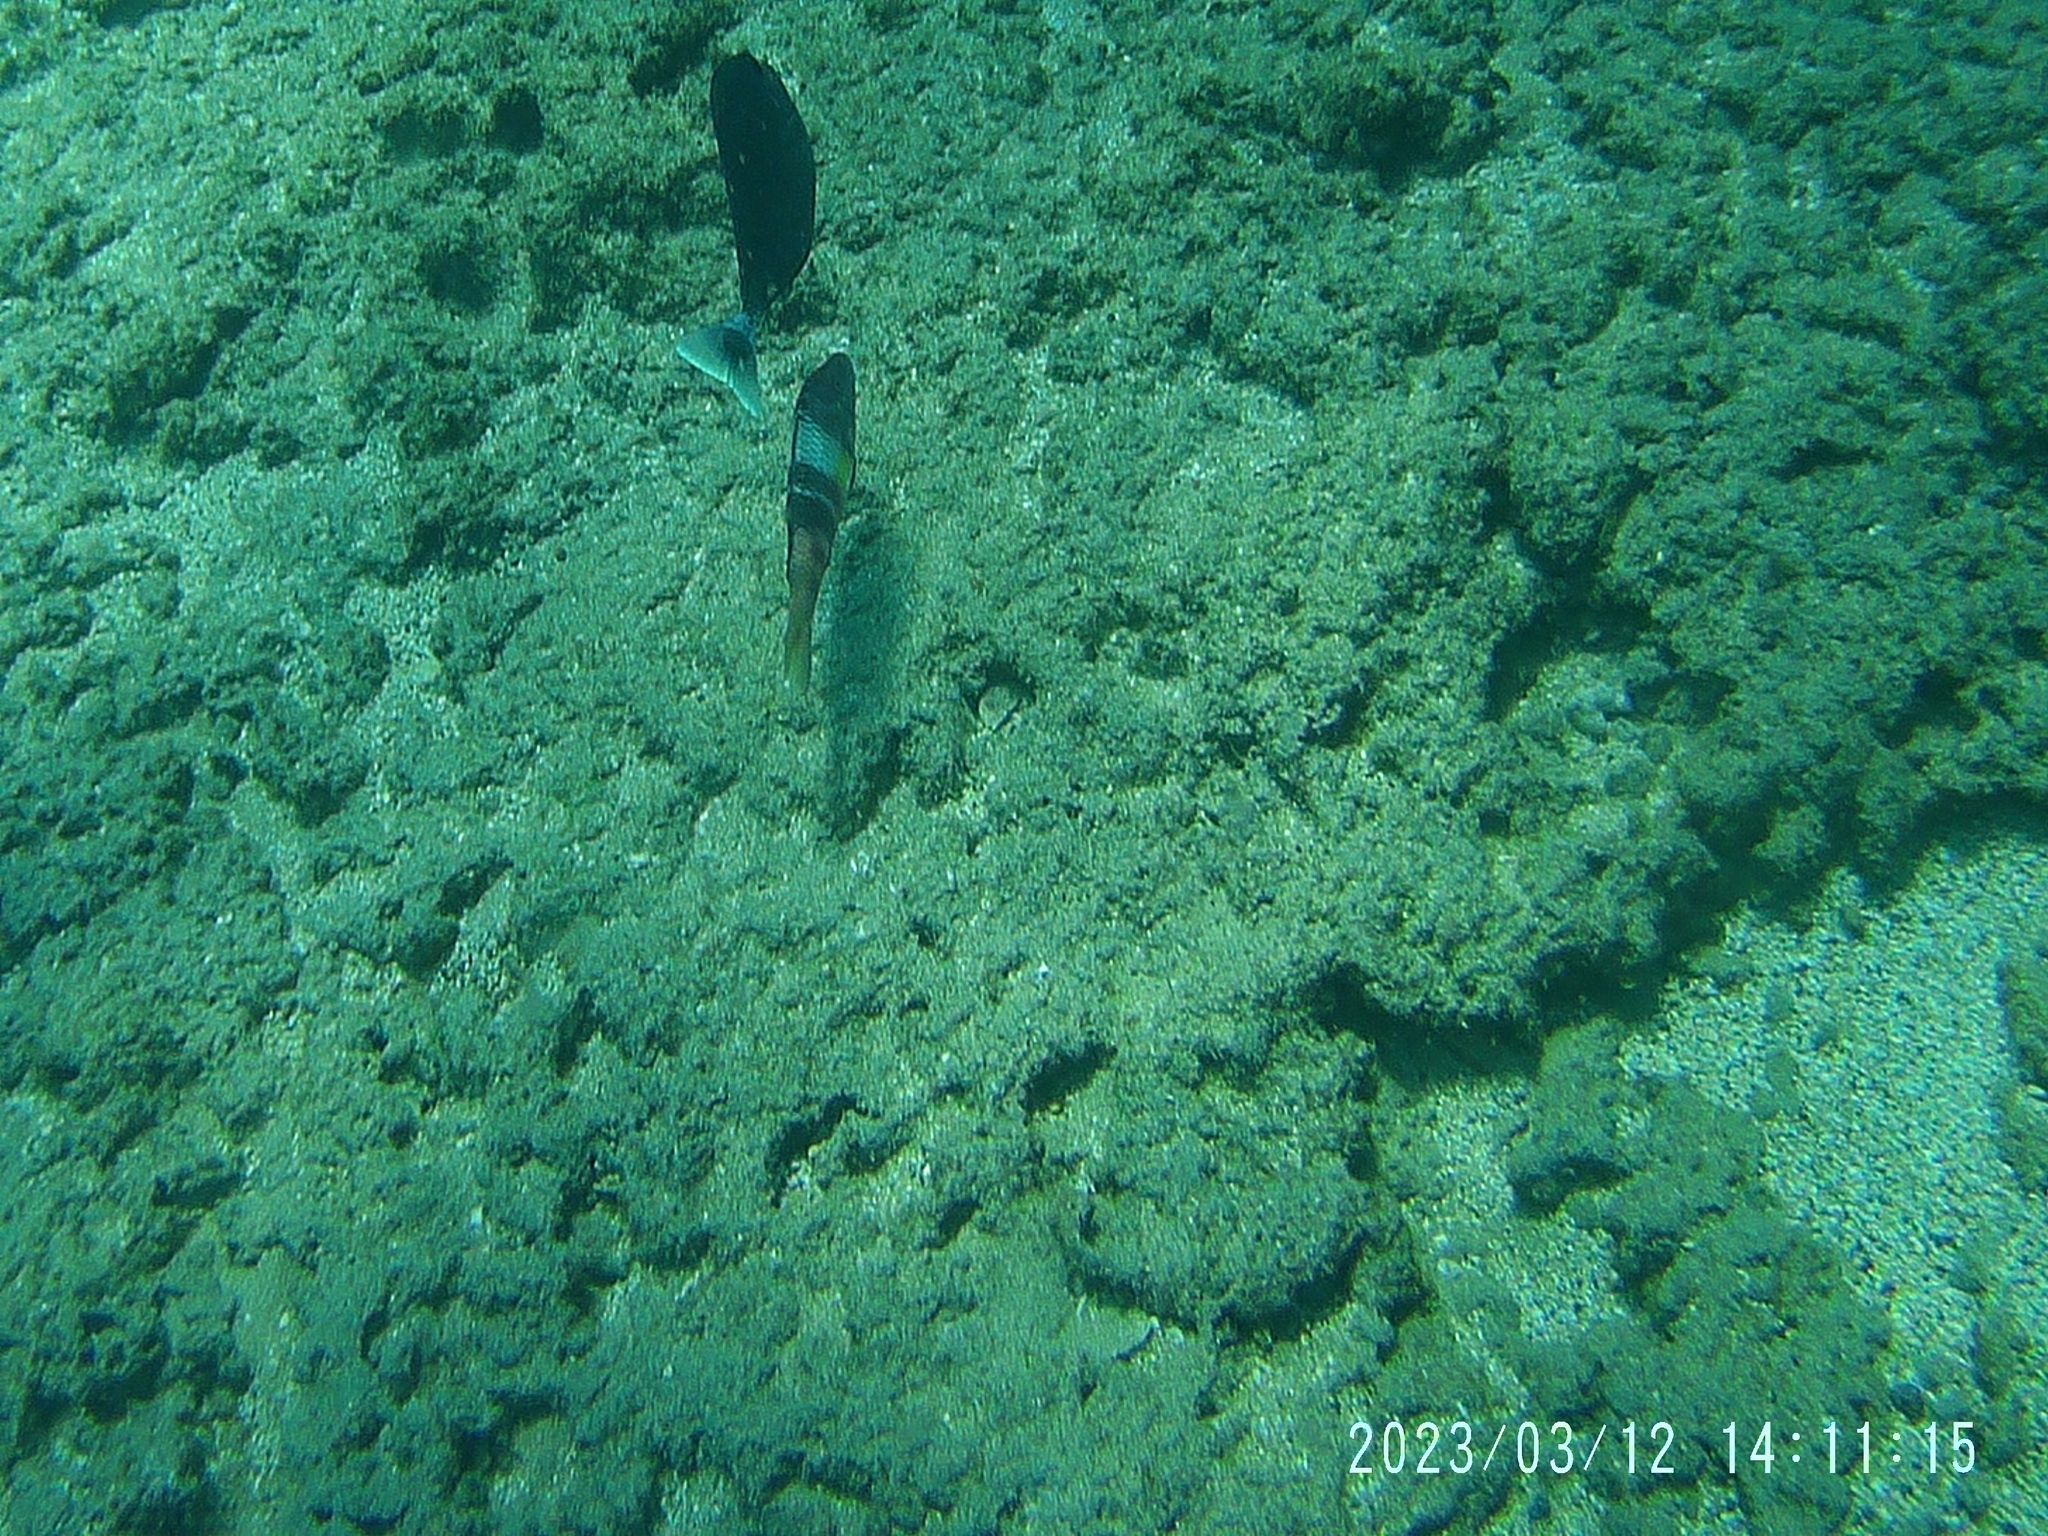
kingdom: Animalia
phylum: Chordata
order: Perciformes
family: Mullidae
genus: Parupeneus
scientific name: Parupeneus multifasciatus
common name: Manybar goatfish
